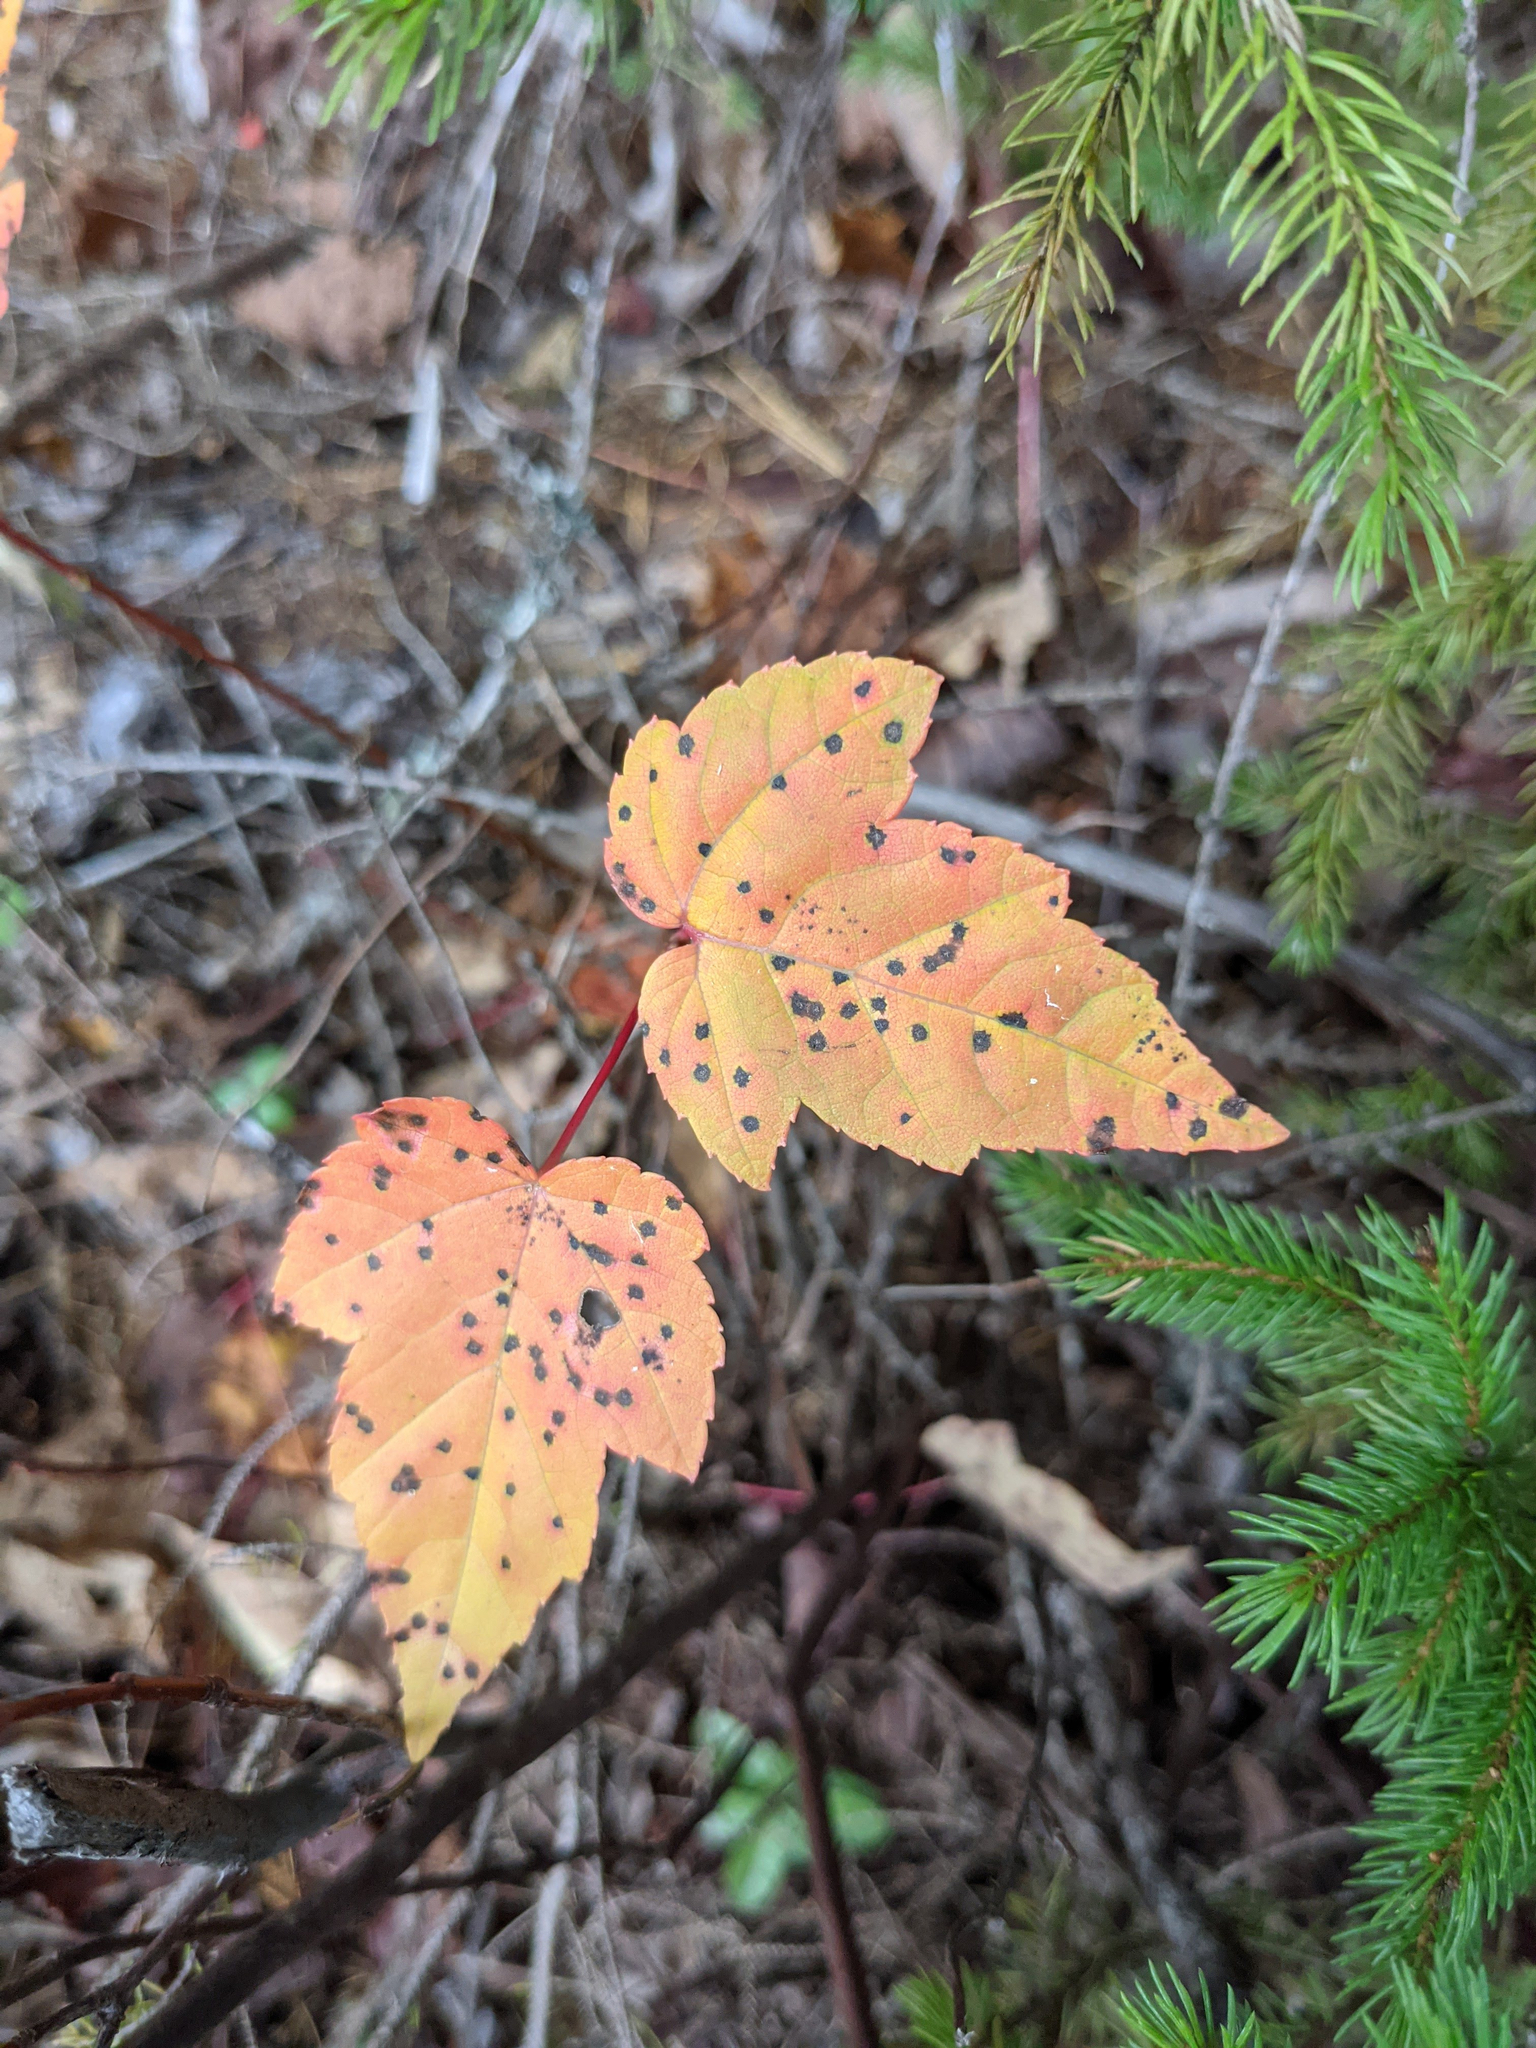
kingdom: Plantae
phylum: Tracheophyta
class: Magnoliopsida
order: Sapindales
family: Sapindaceae
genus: Acer
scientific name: Acer rubrum
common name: Red maple
